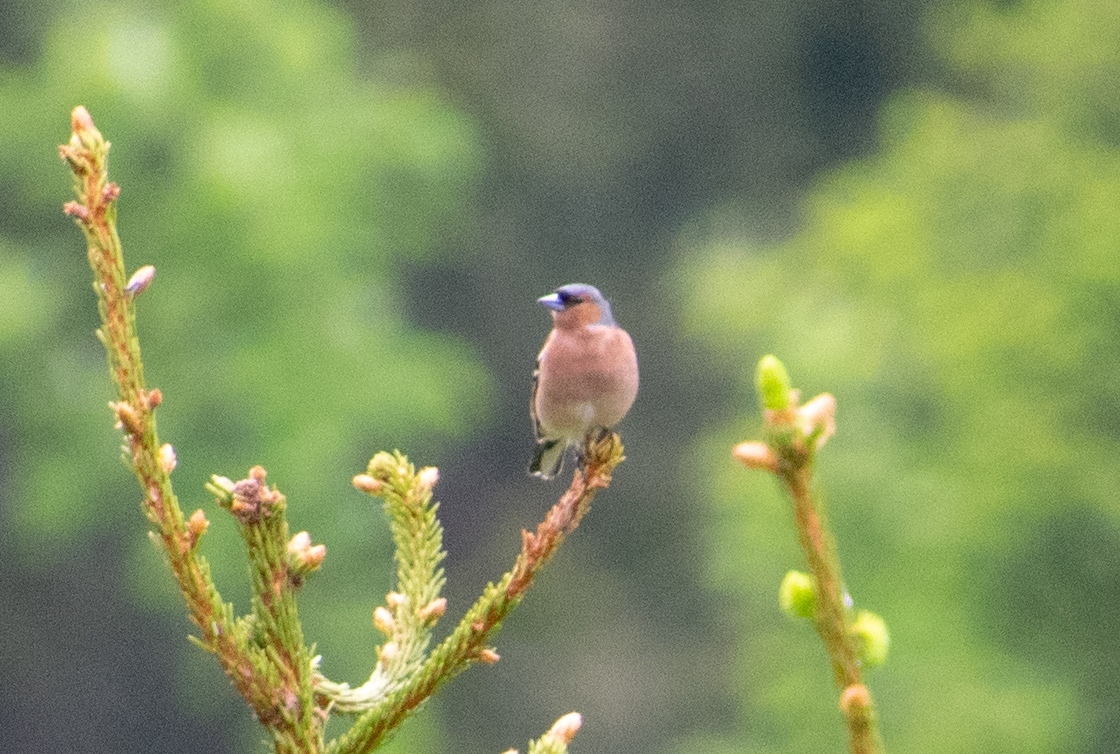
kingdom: Animalia
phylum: Chordata
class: Aves
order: Passeriformes
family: Fringillidae
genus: Fringilla
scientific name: Fringilla coelebs
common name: Common chaffinch
